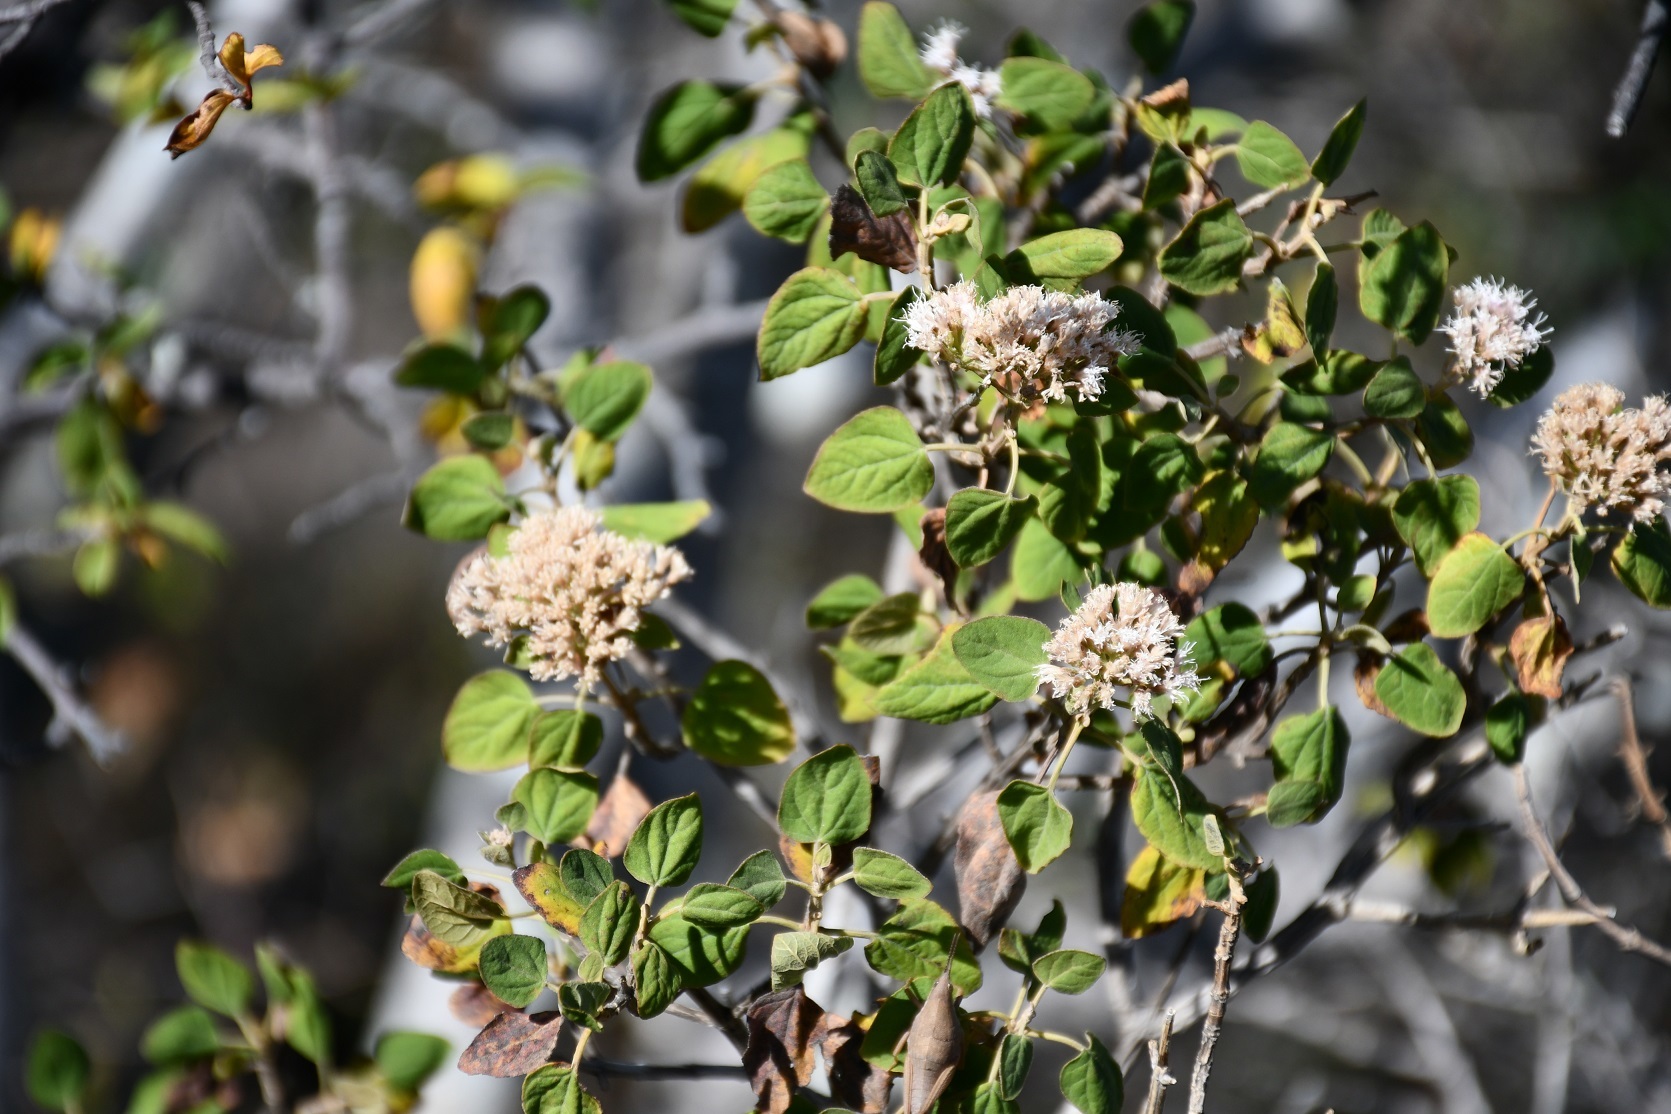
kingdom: Plantae
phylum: Tracheophyta
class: Magnoliopsida
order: Asterales
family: Asteraceae
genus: Ageratina
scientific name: Ageratina tomentella
